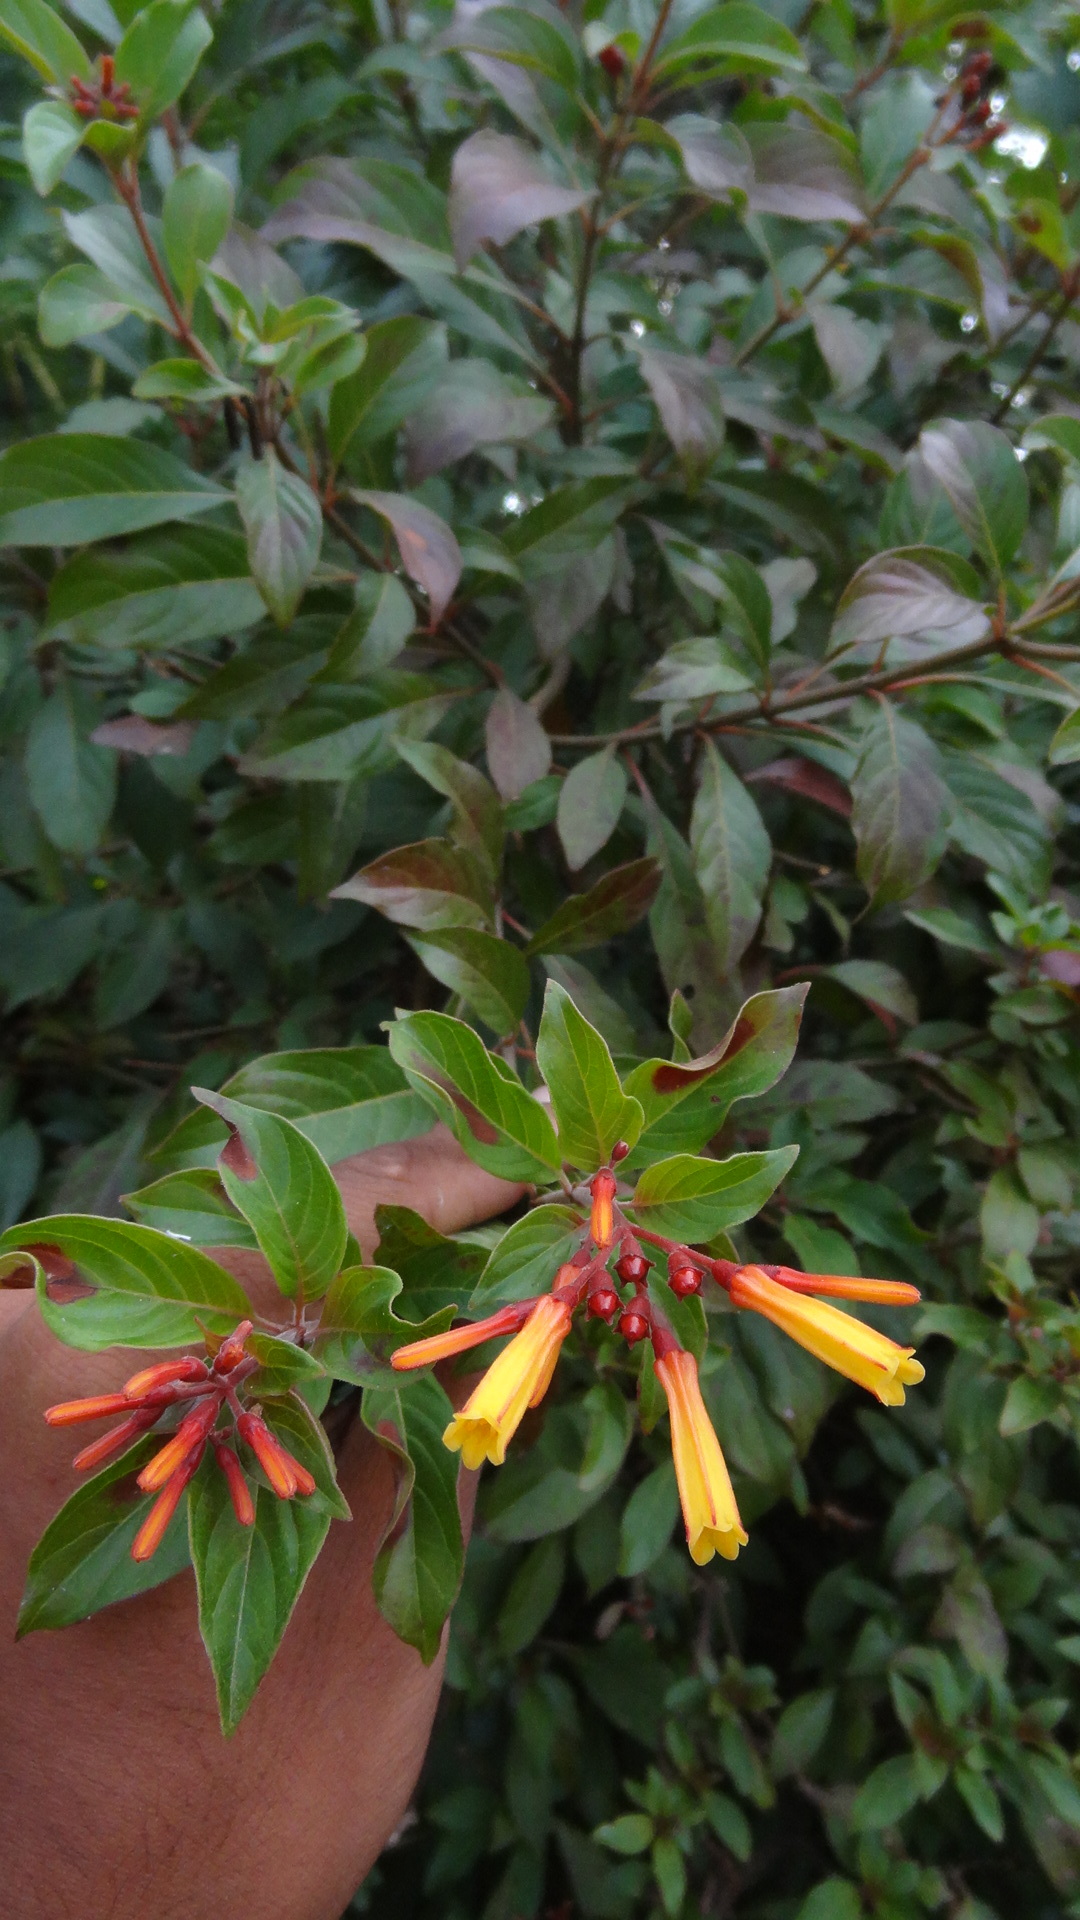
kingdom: Plantae
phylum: Tracheophyta
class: Magnoliopsida
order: Gentianales
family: Rubiaceae
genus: Hamelia
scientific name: Hamelia patens
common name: Redhead
